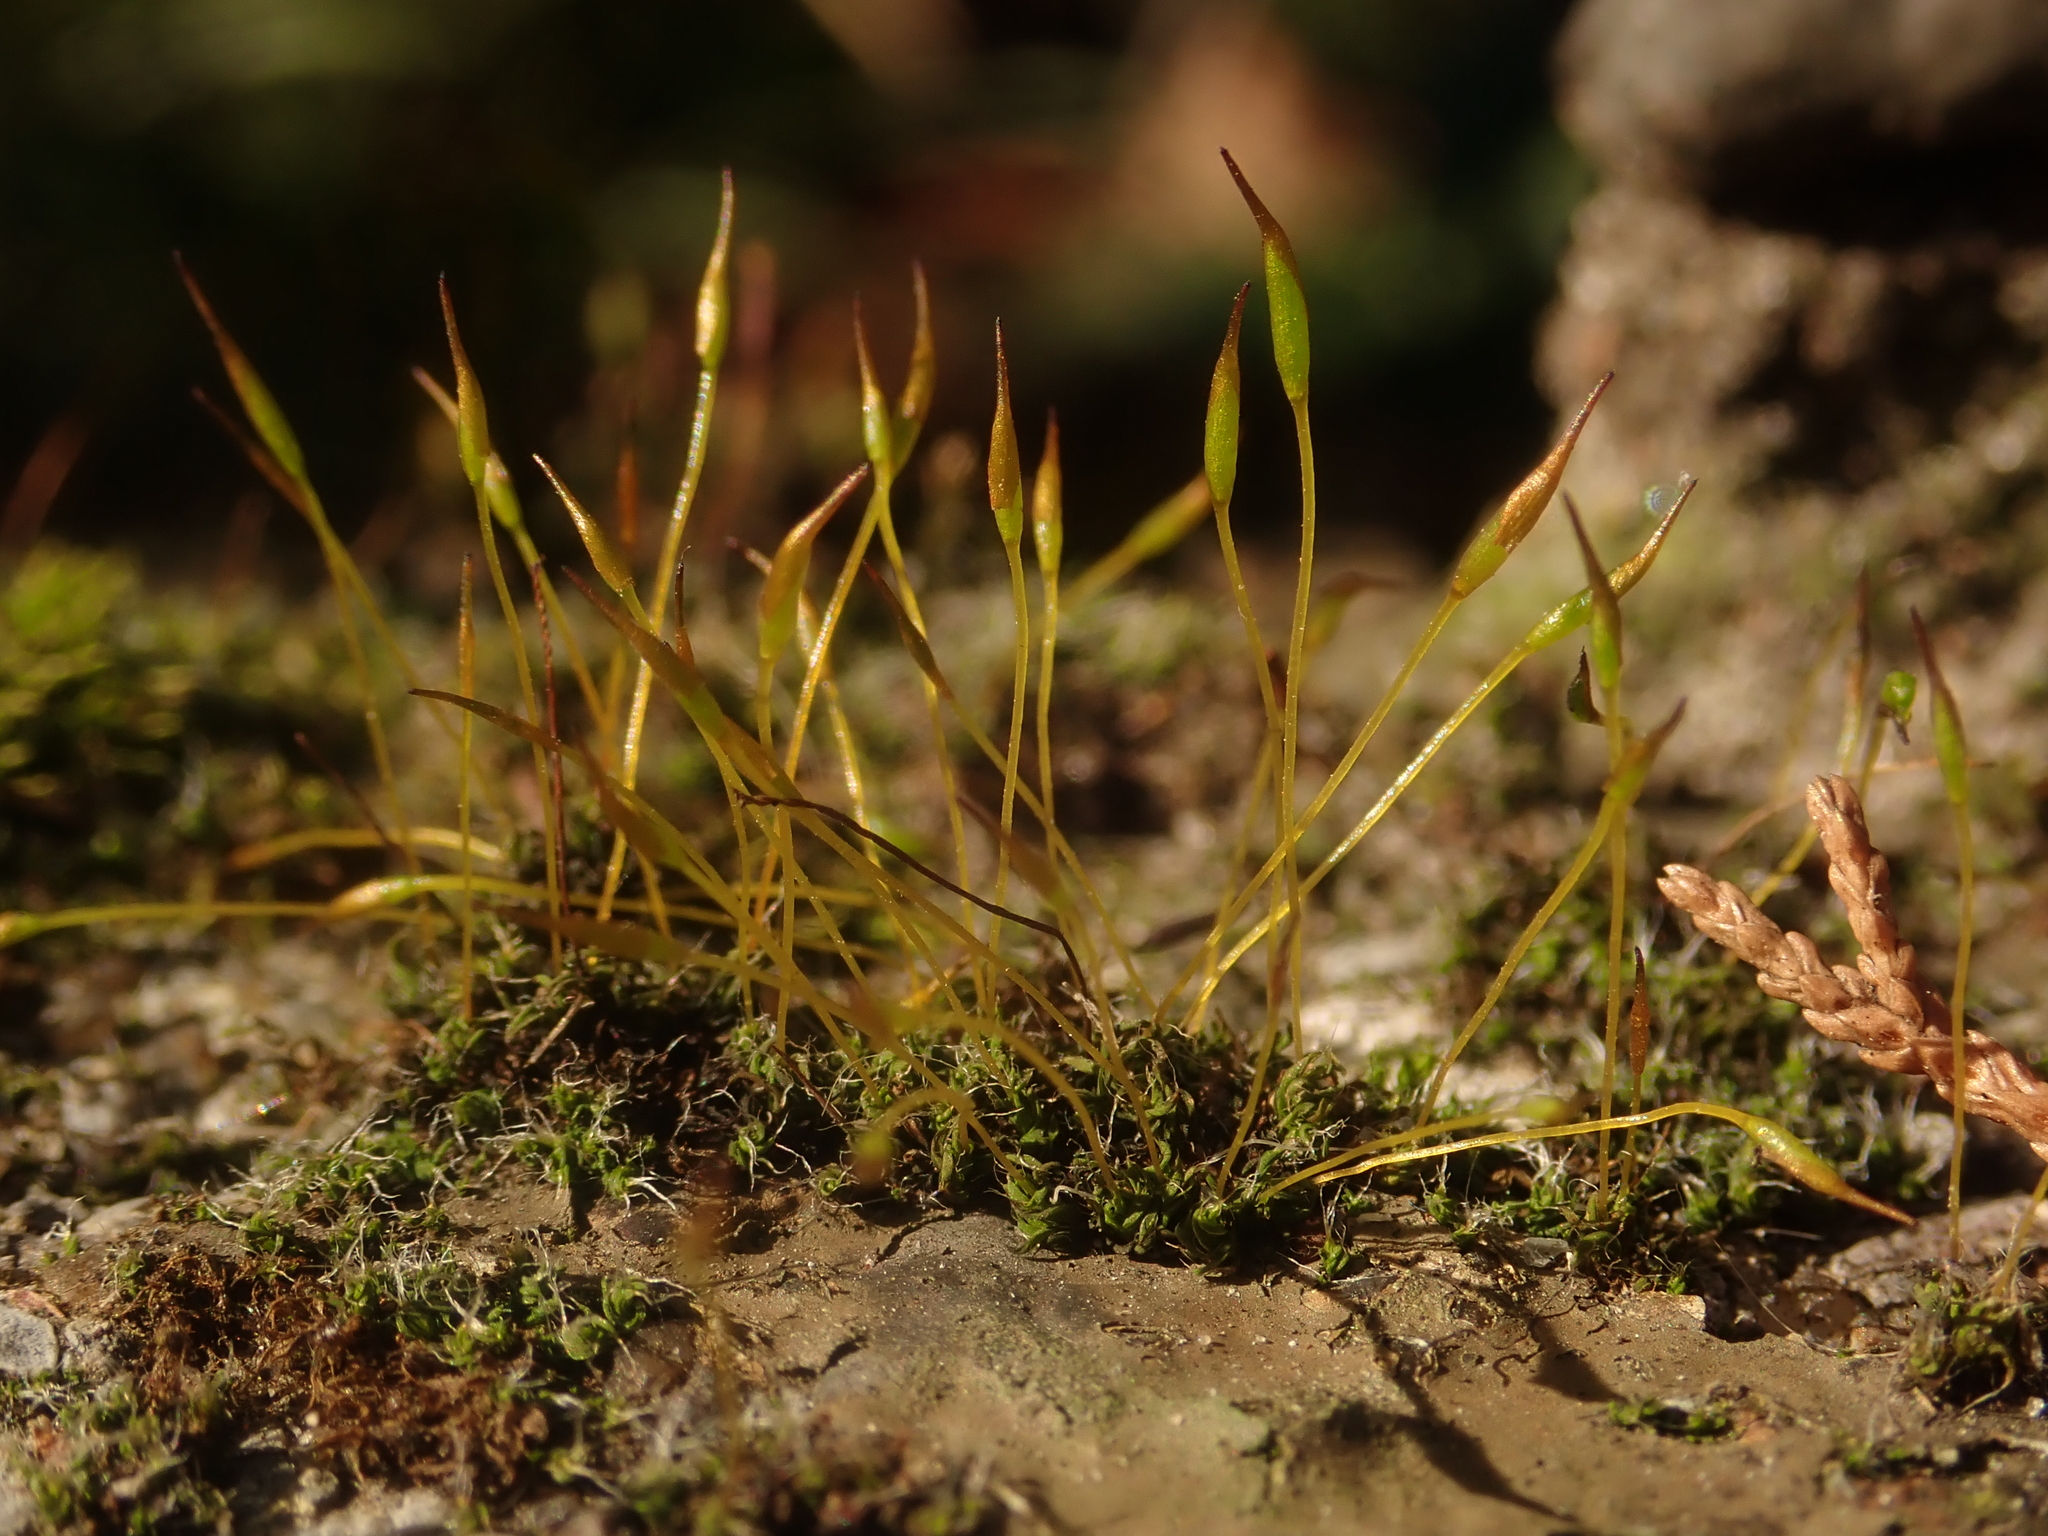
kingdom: Plantae
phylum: Bryophyta
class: Bryopsida
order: Pottiales
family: Pottiaceae
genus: Tortula
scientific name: Tortula muralis
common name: Wall screw-moss
